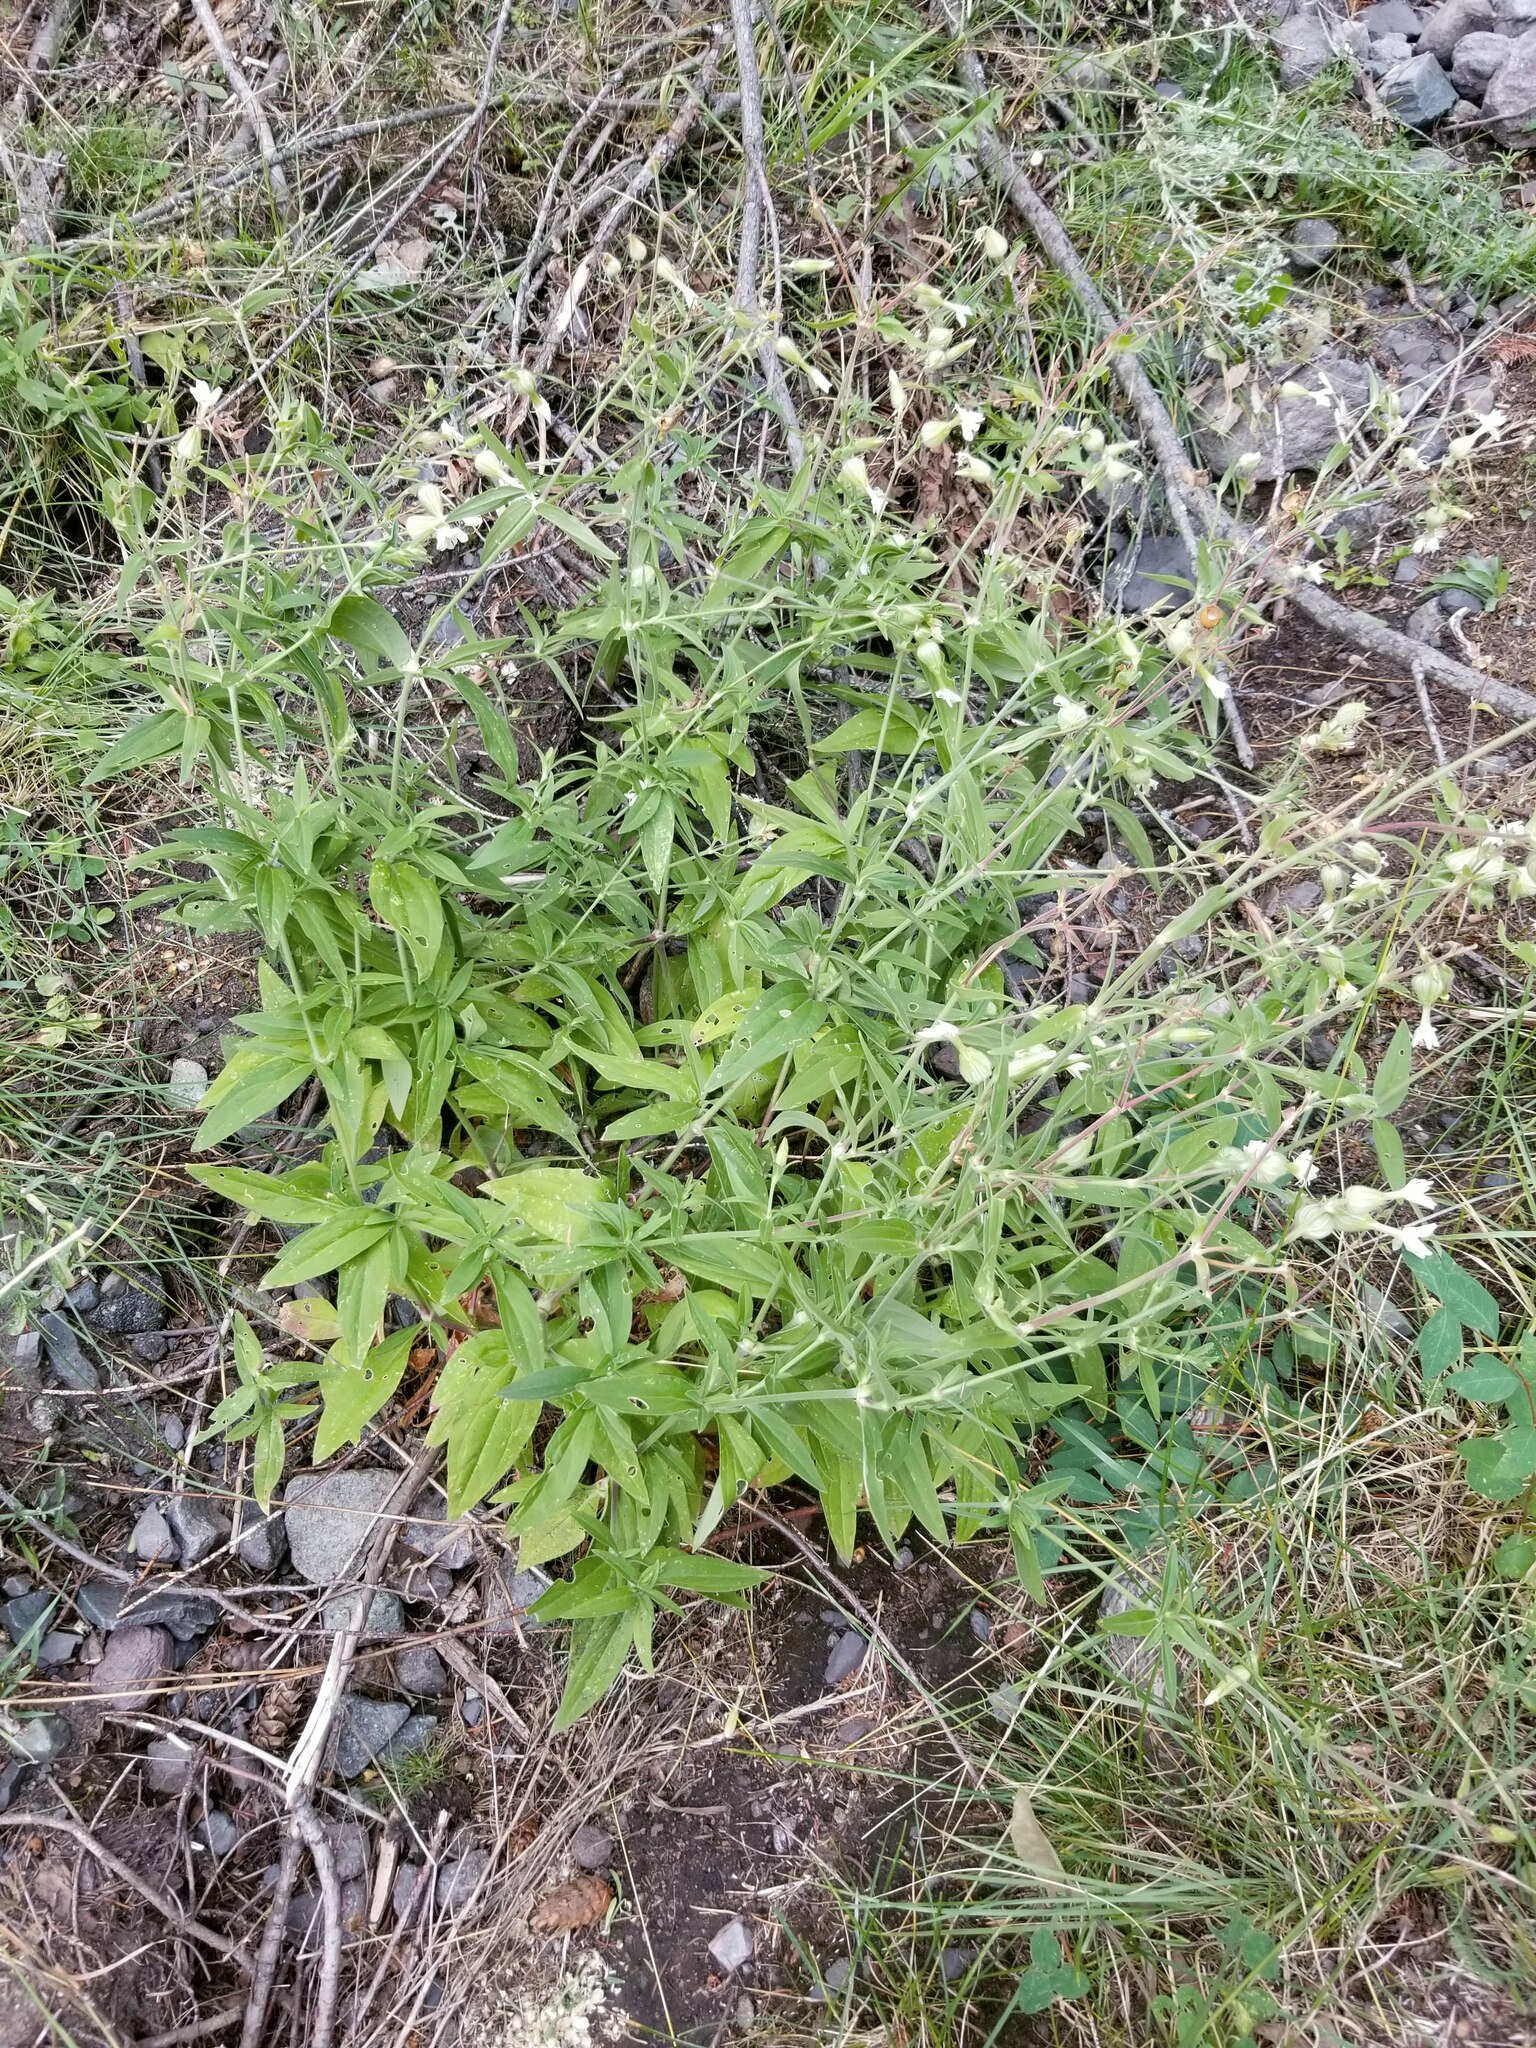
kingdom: Plantae
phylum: Tracheophyta
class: Magnoliopsida
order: Caryophyllales
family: Caryophyllaceae
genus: Silene
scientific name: Silene latifolia
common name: White campion
